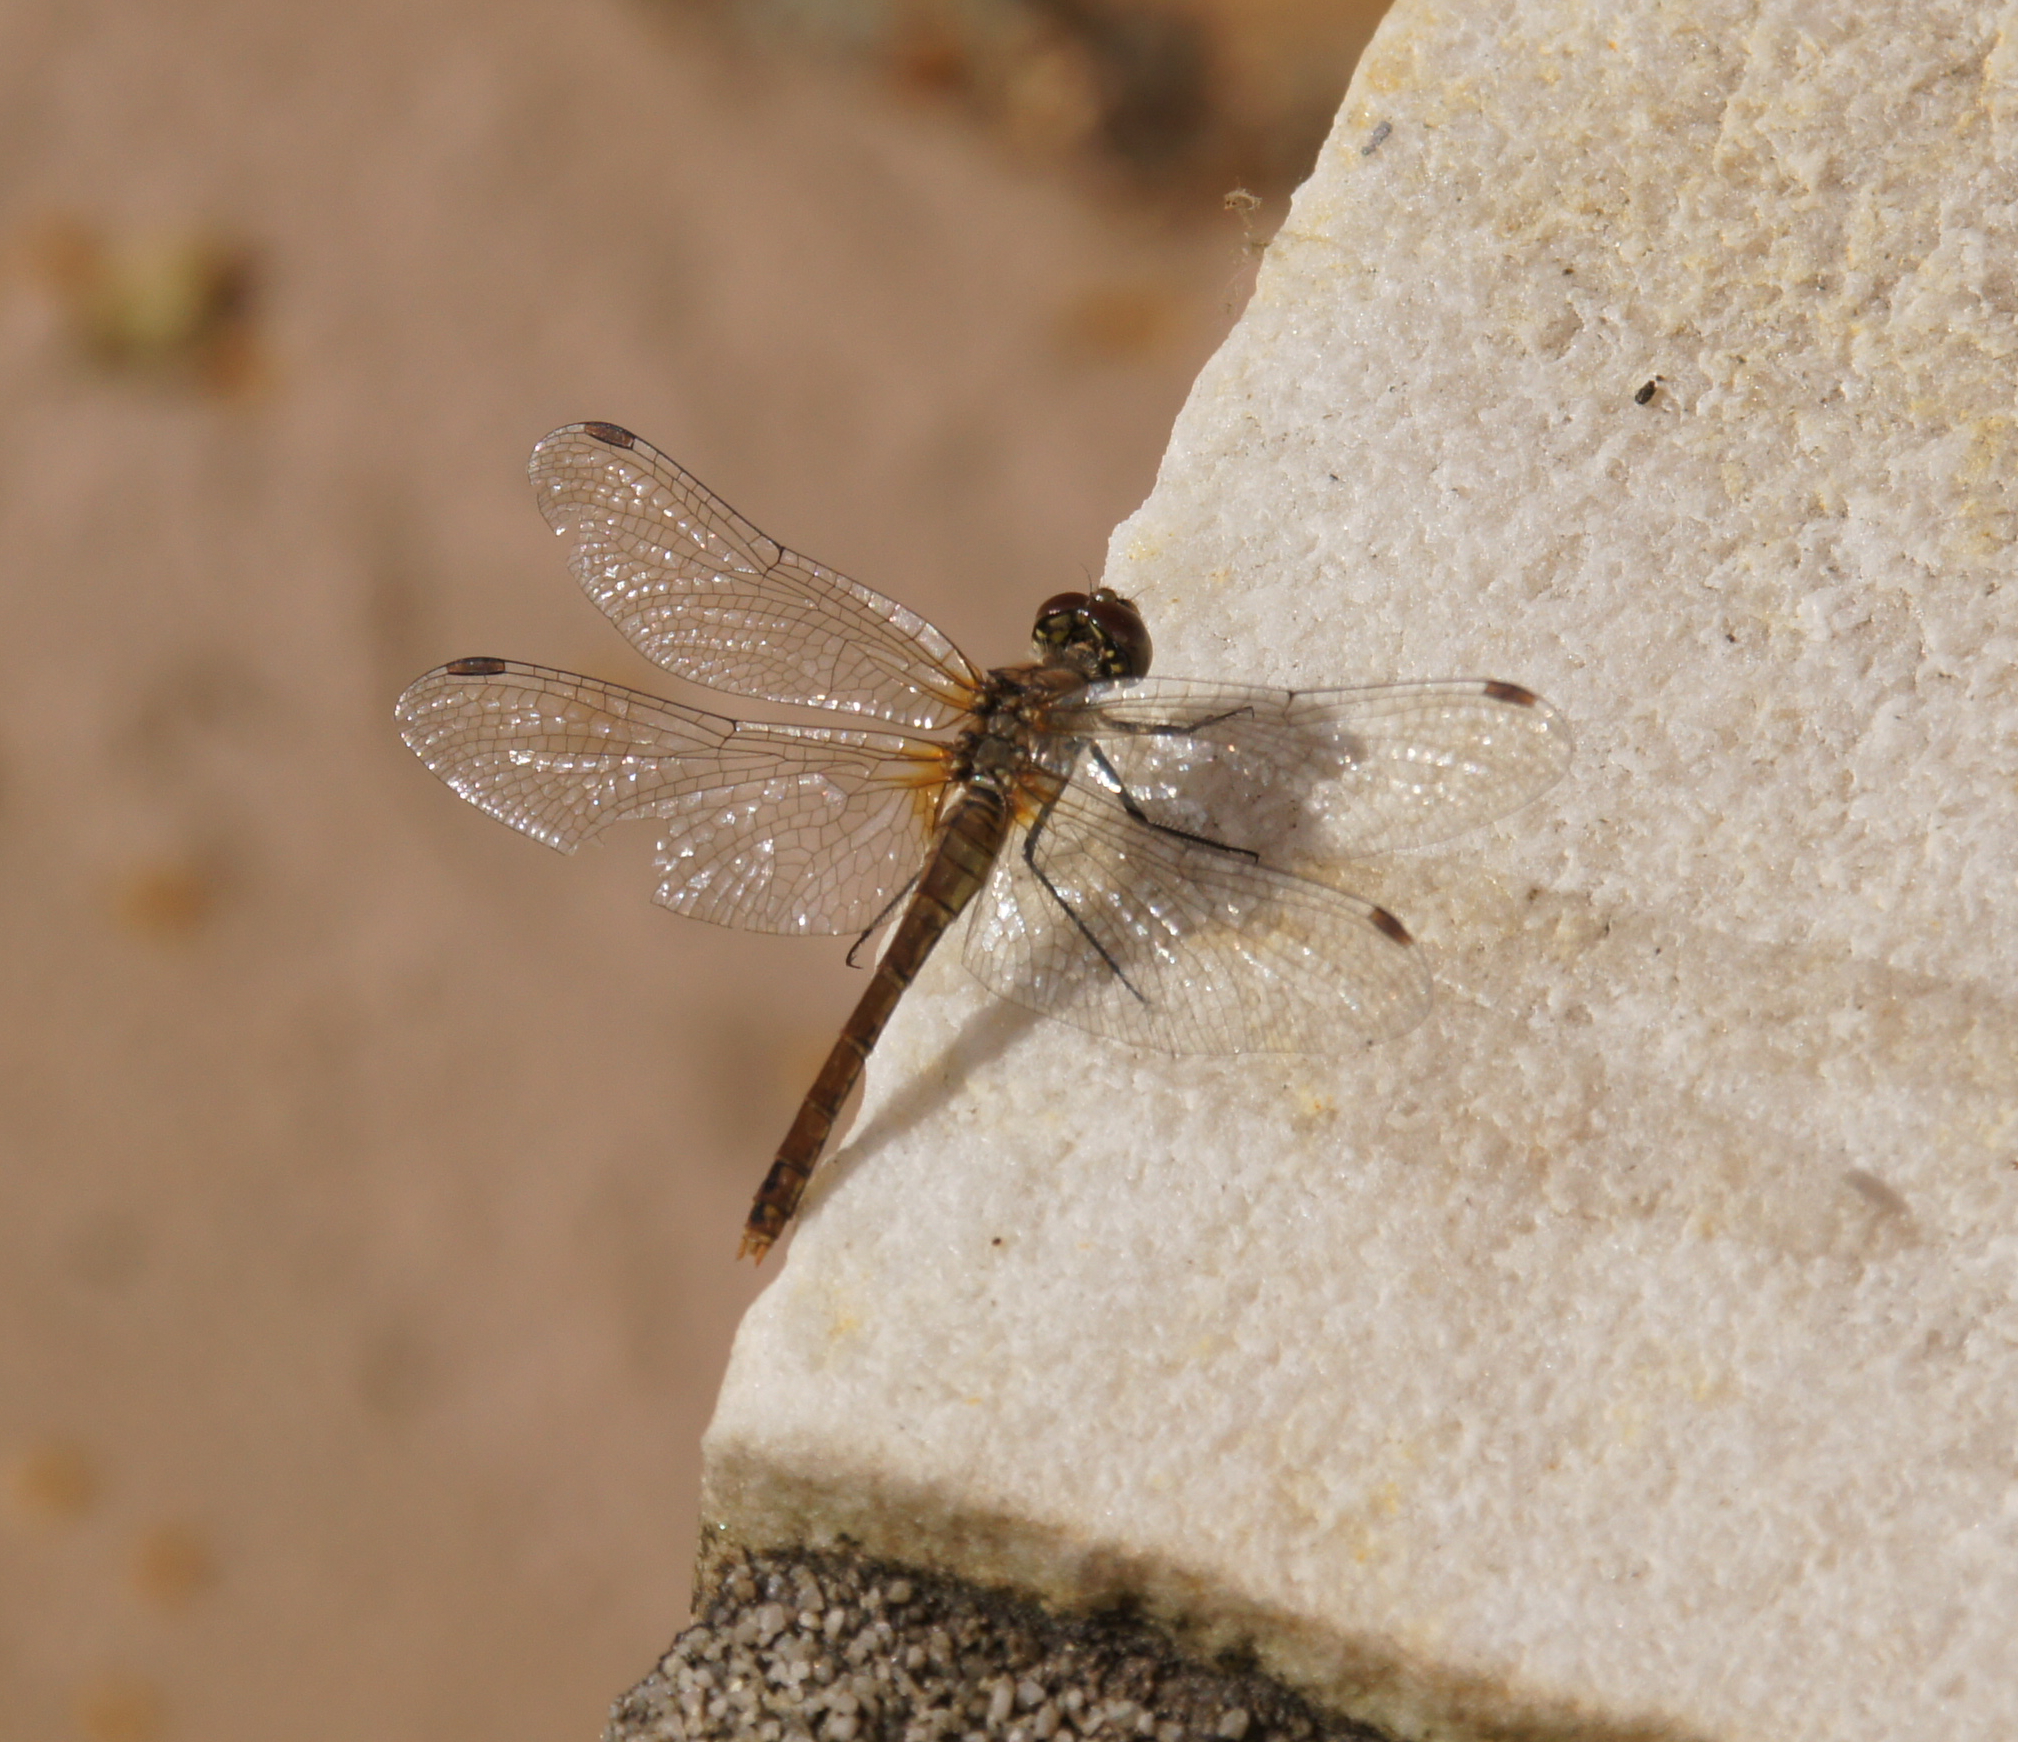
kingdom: Animalia
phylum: Arthropoda
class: Insecta
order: Odonata
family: Libellulidae
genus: Sympetrum
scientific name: Sympetrum sanguineum
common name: Ruddy darter
